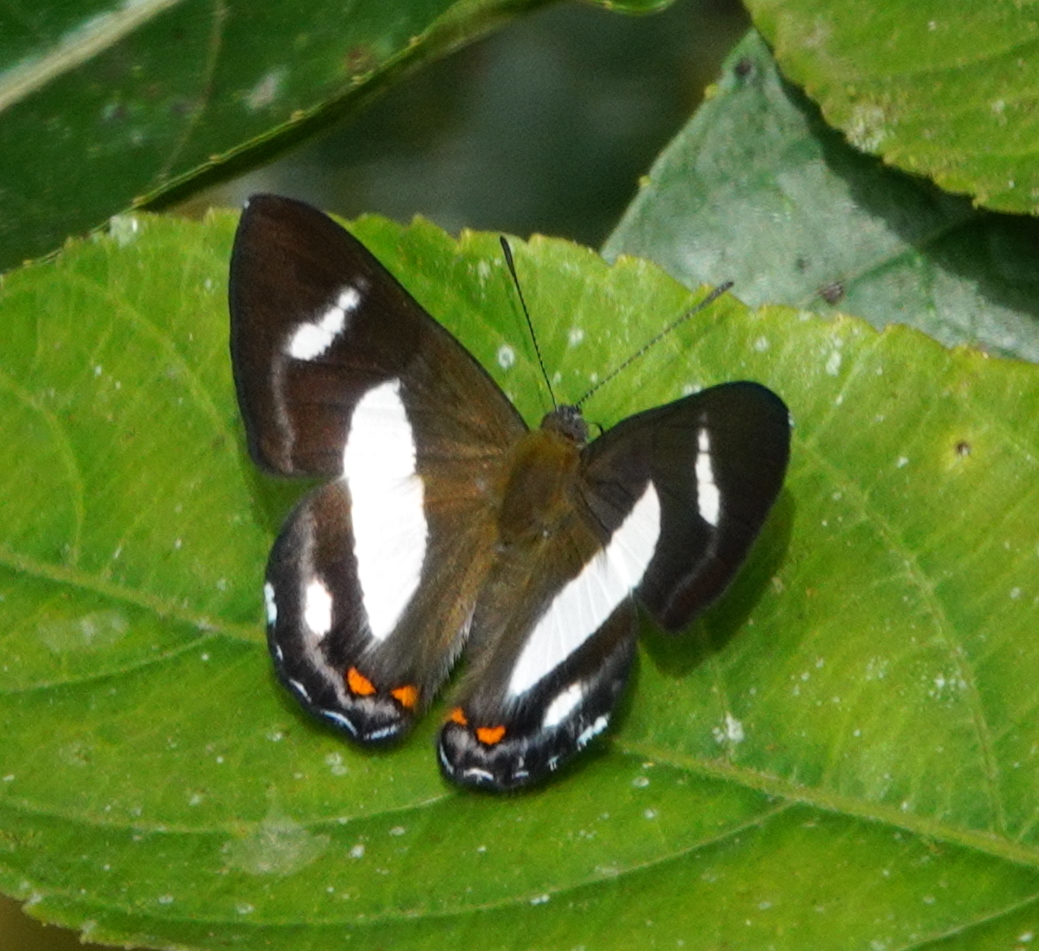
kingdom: Animalia
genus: Siseme
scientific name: Siseme alectryo
